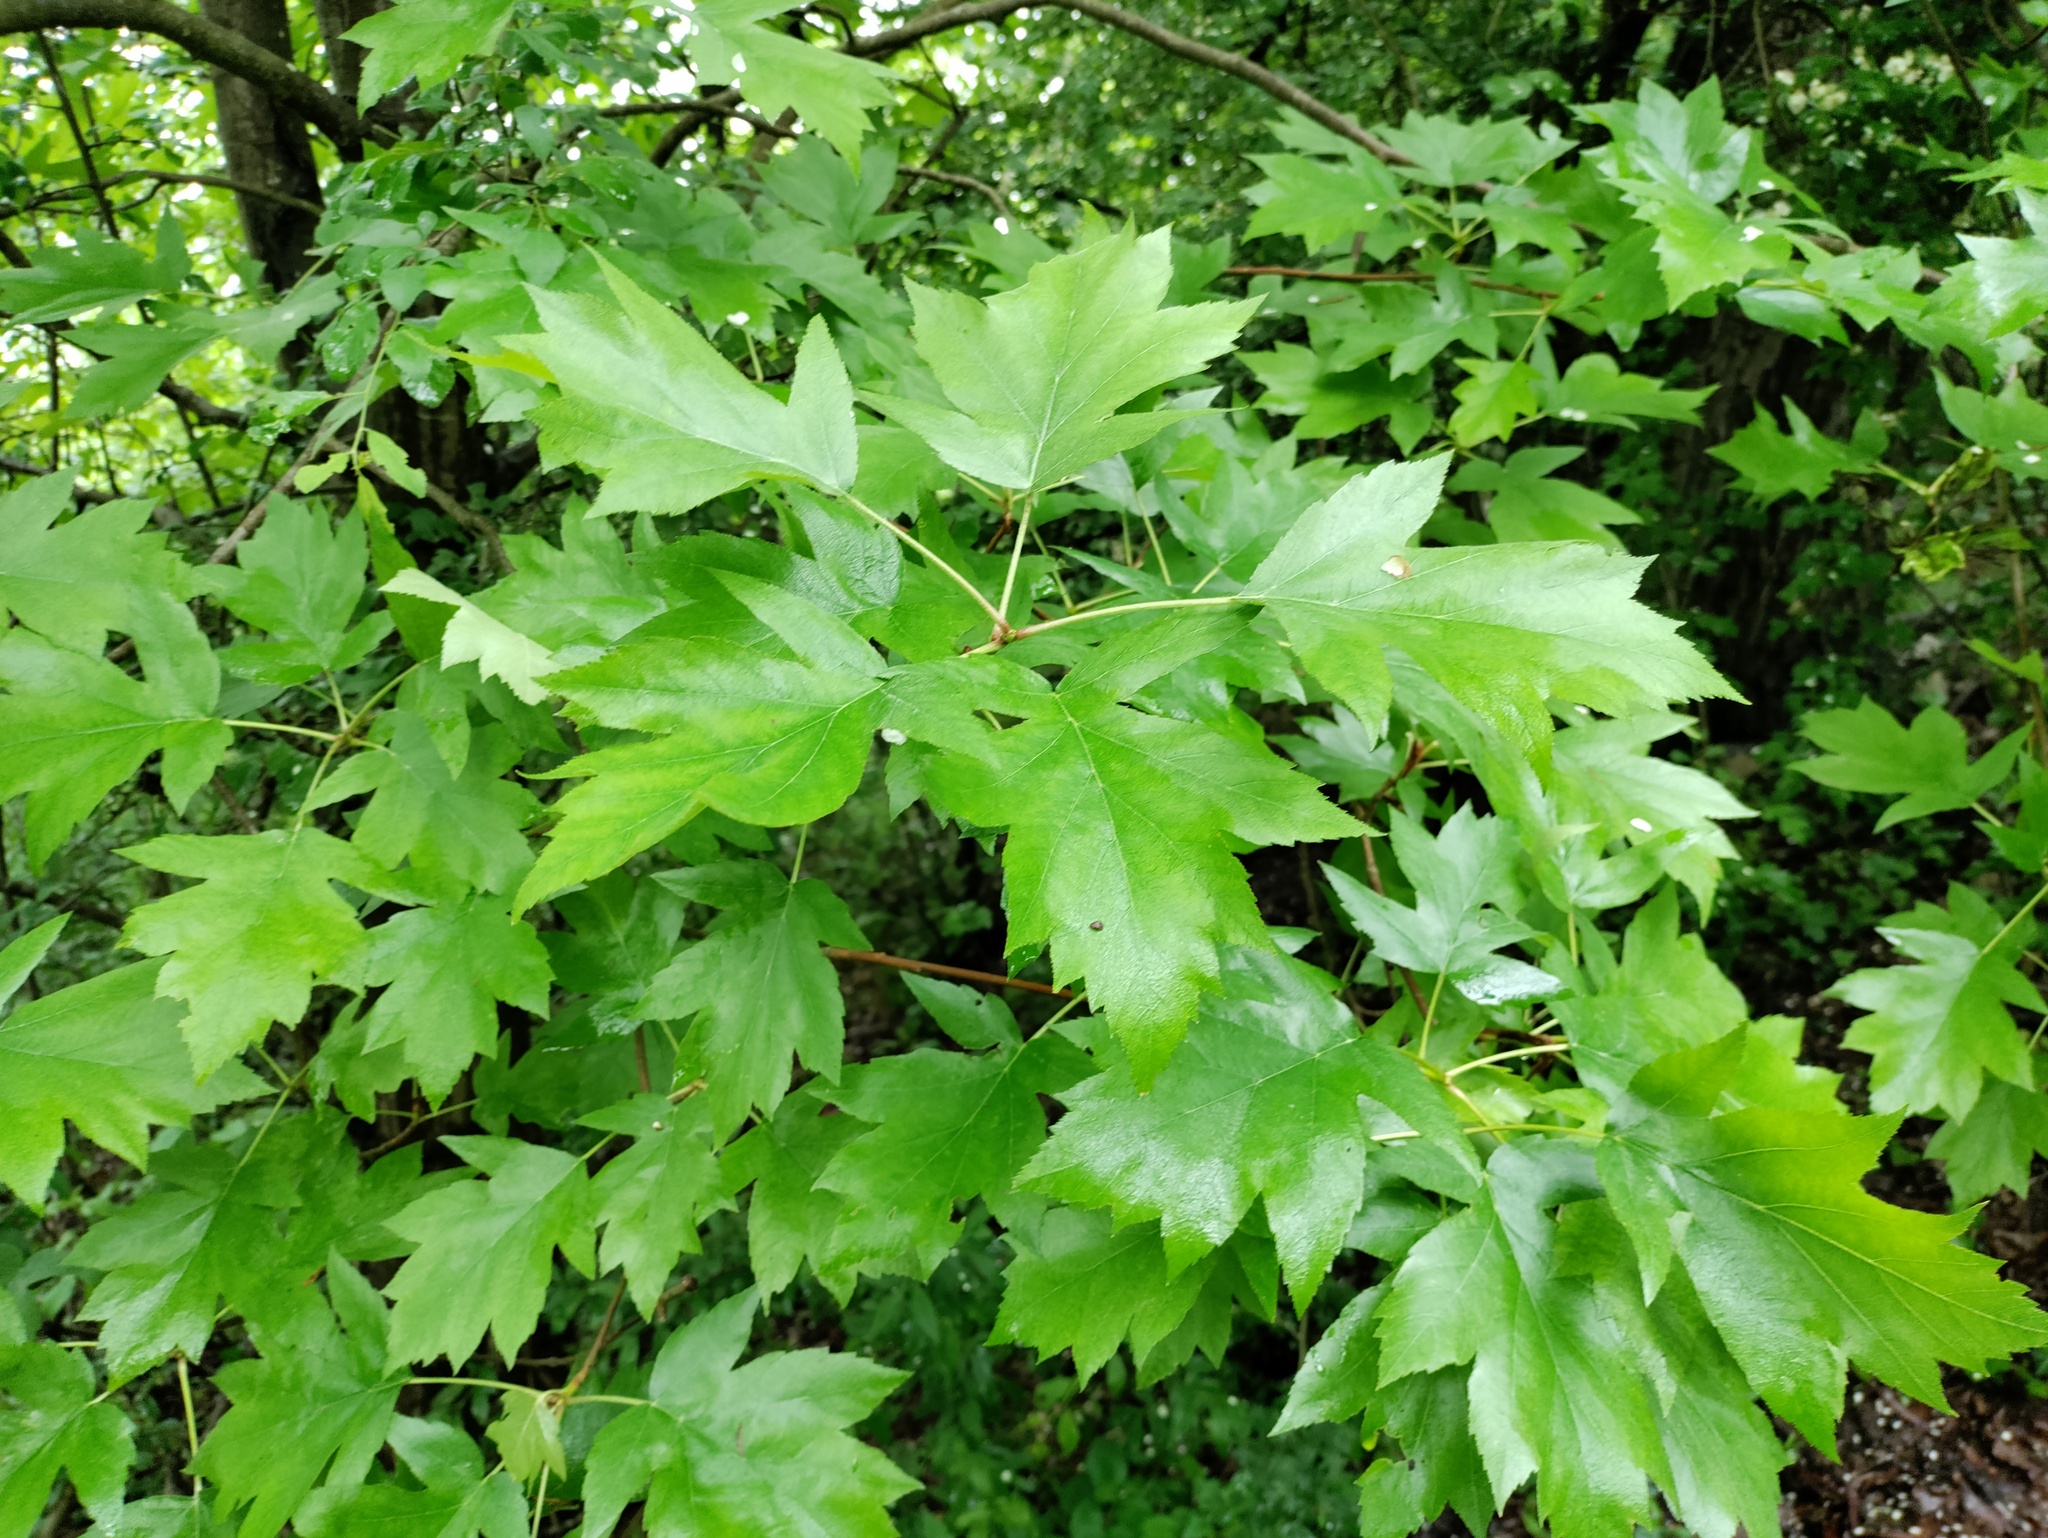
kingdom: Plantae
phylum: Tracheophyta
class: Magnoliopsida
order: Rosales
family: Rosaceae
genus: Torminalis
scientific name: Torminalis glaberrima
